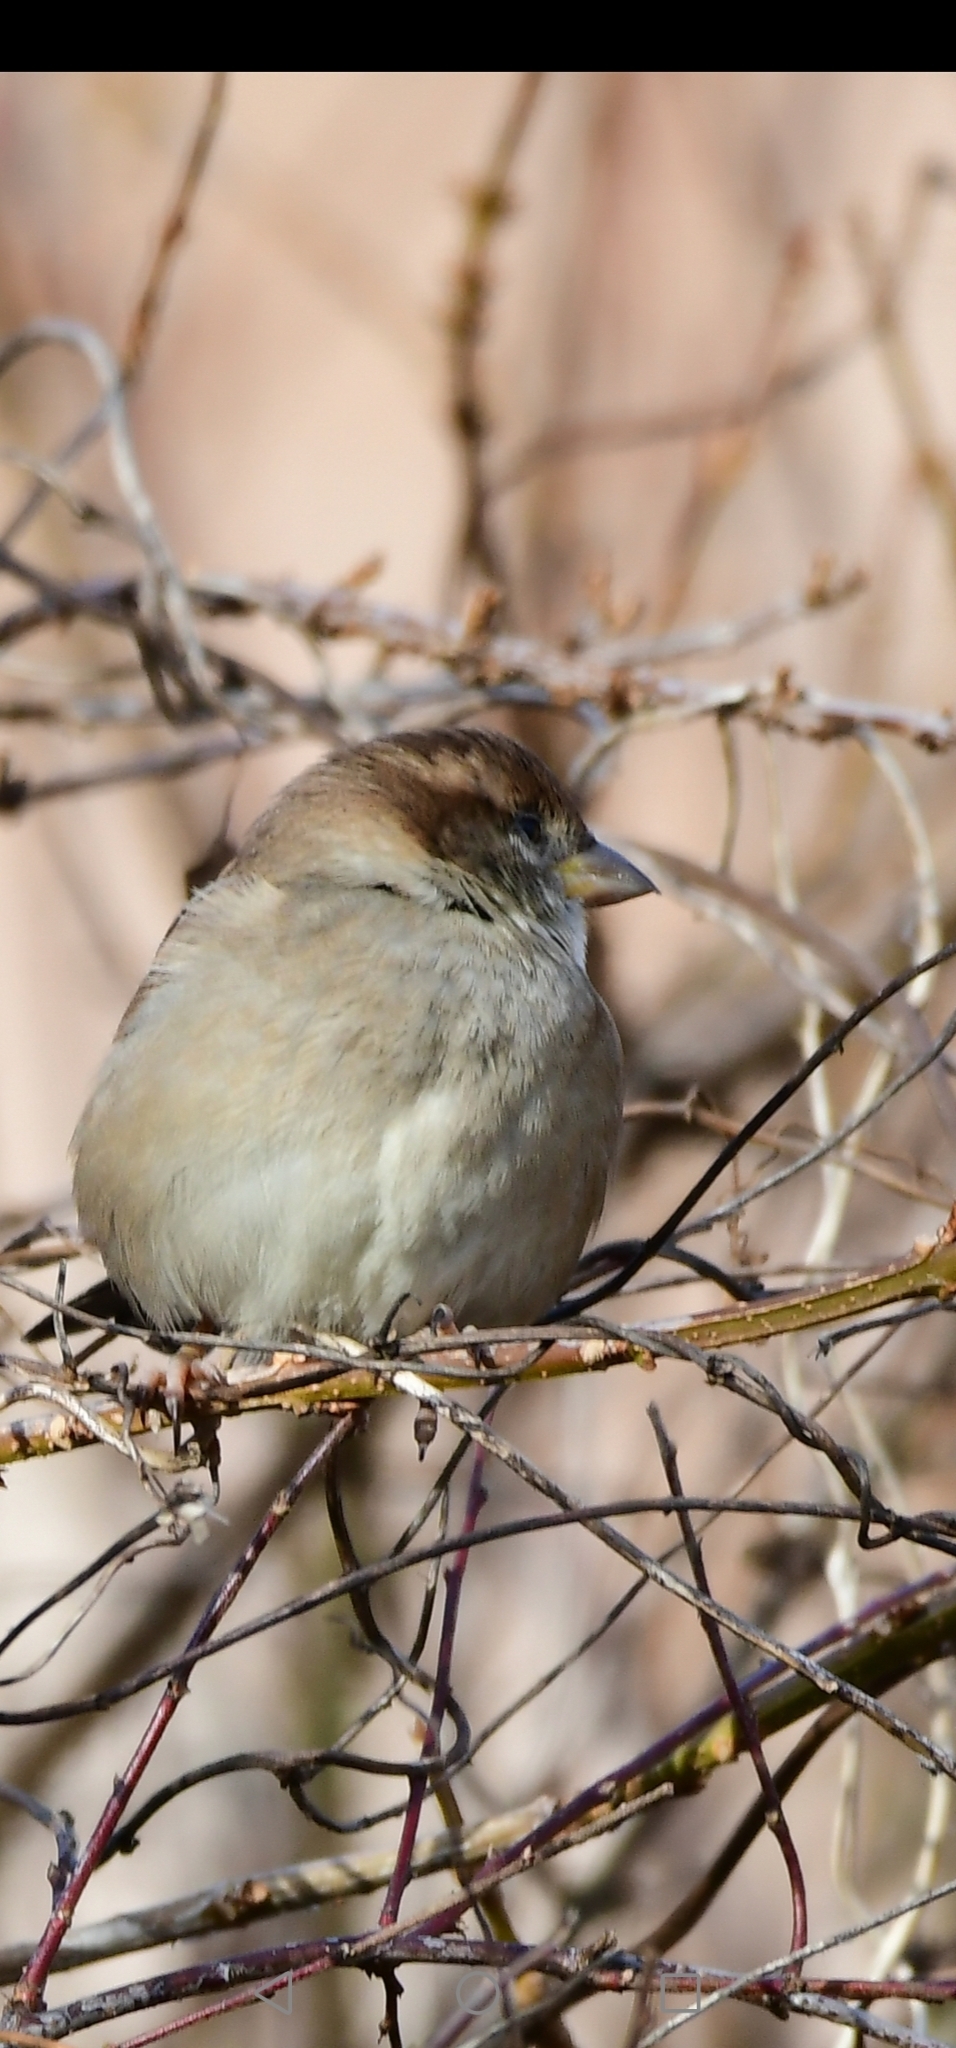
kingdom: Animalia
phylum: Chordata
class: Aves
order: Passeriformes
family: Passeridae
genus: Passer
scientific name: Passer domesticus
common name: House sparrow
